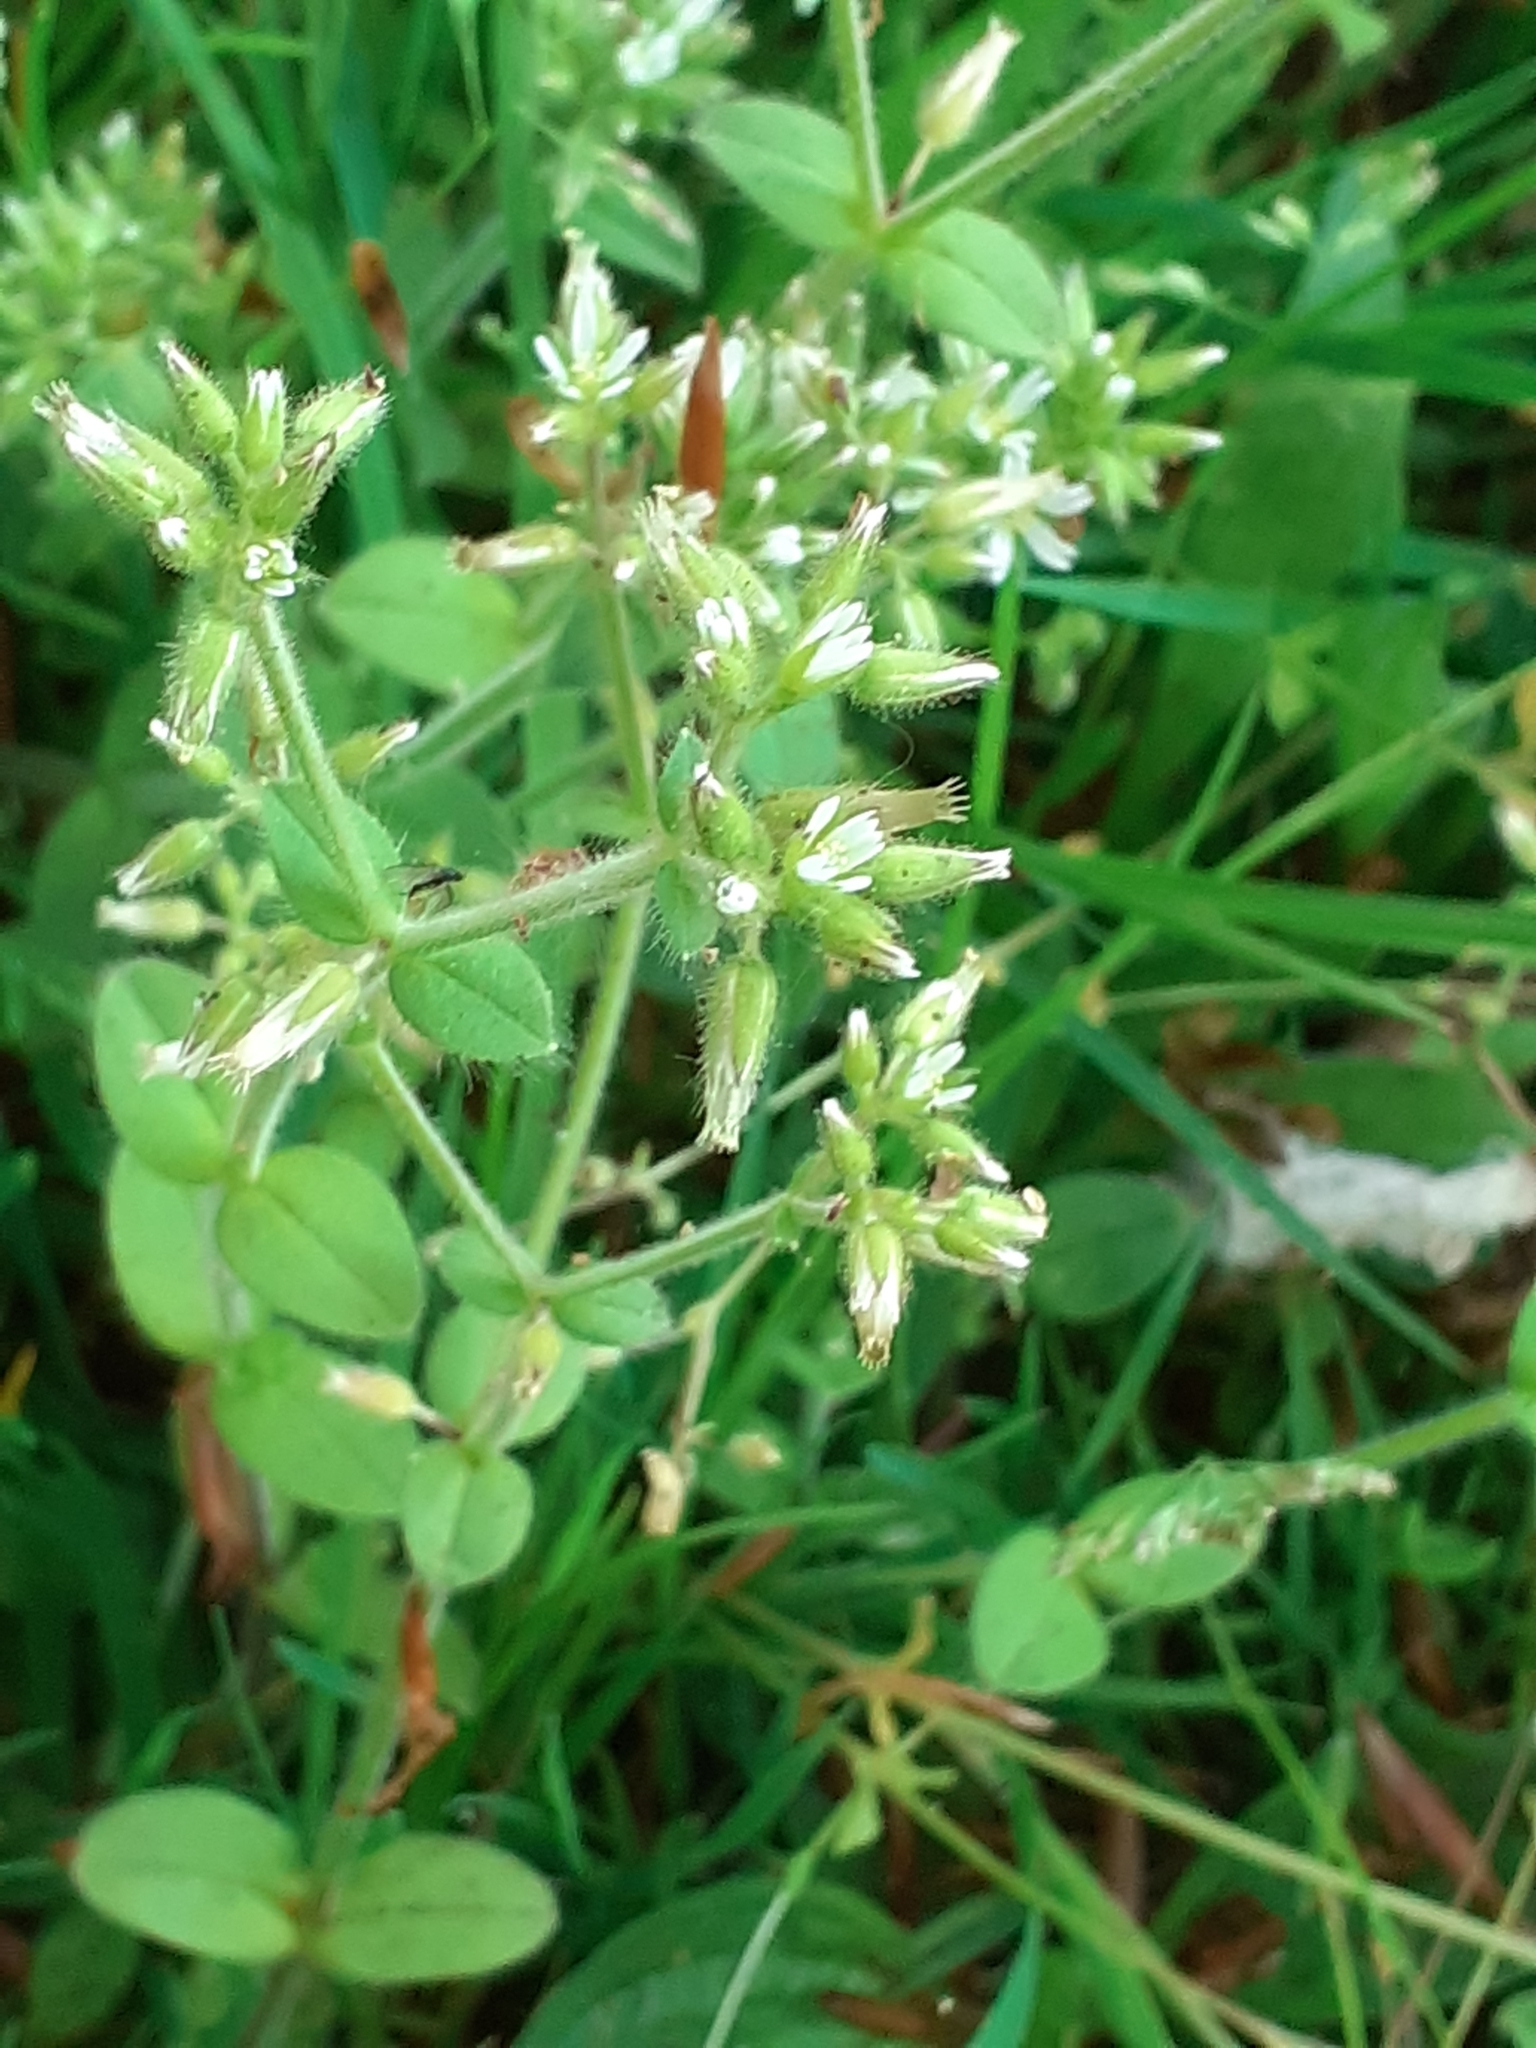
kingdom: Plantae
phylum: Tracheophyta
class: Magnoliopsida
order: Caryophyllales
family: Caryophyllaceae
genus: Cerastium
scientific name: Cerastium glomeratum
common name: Sticky chickweed
